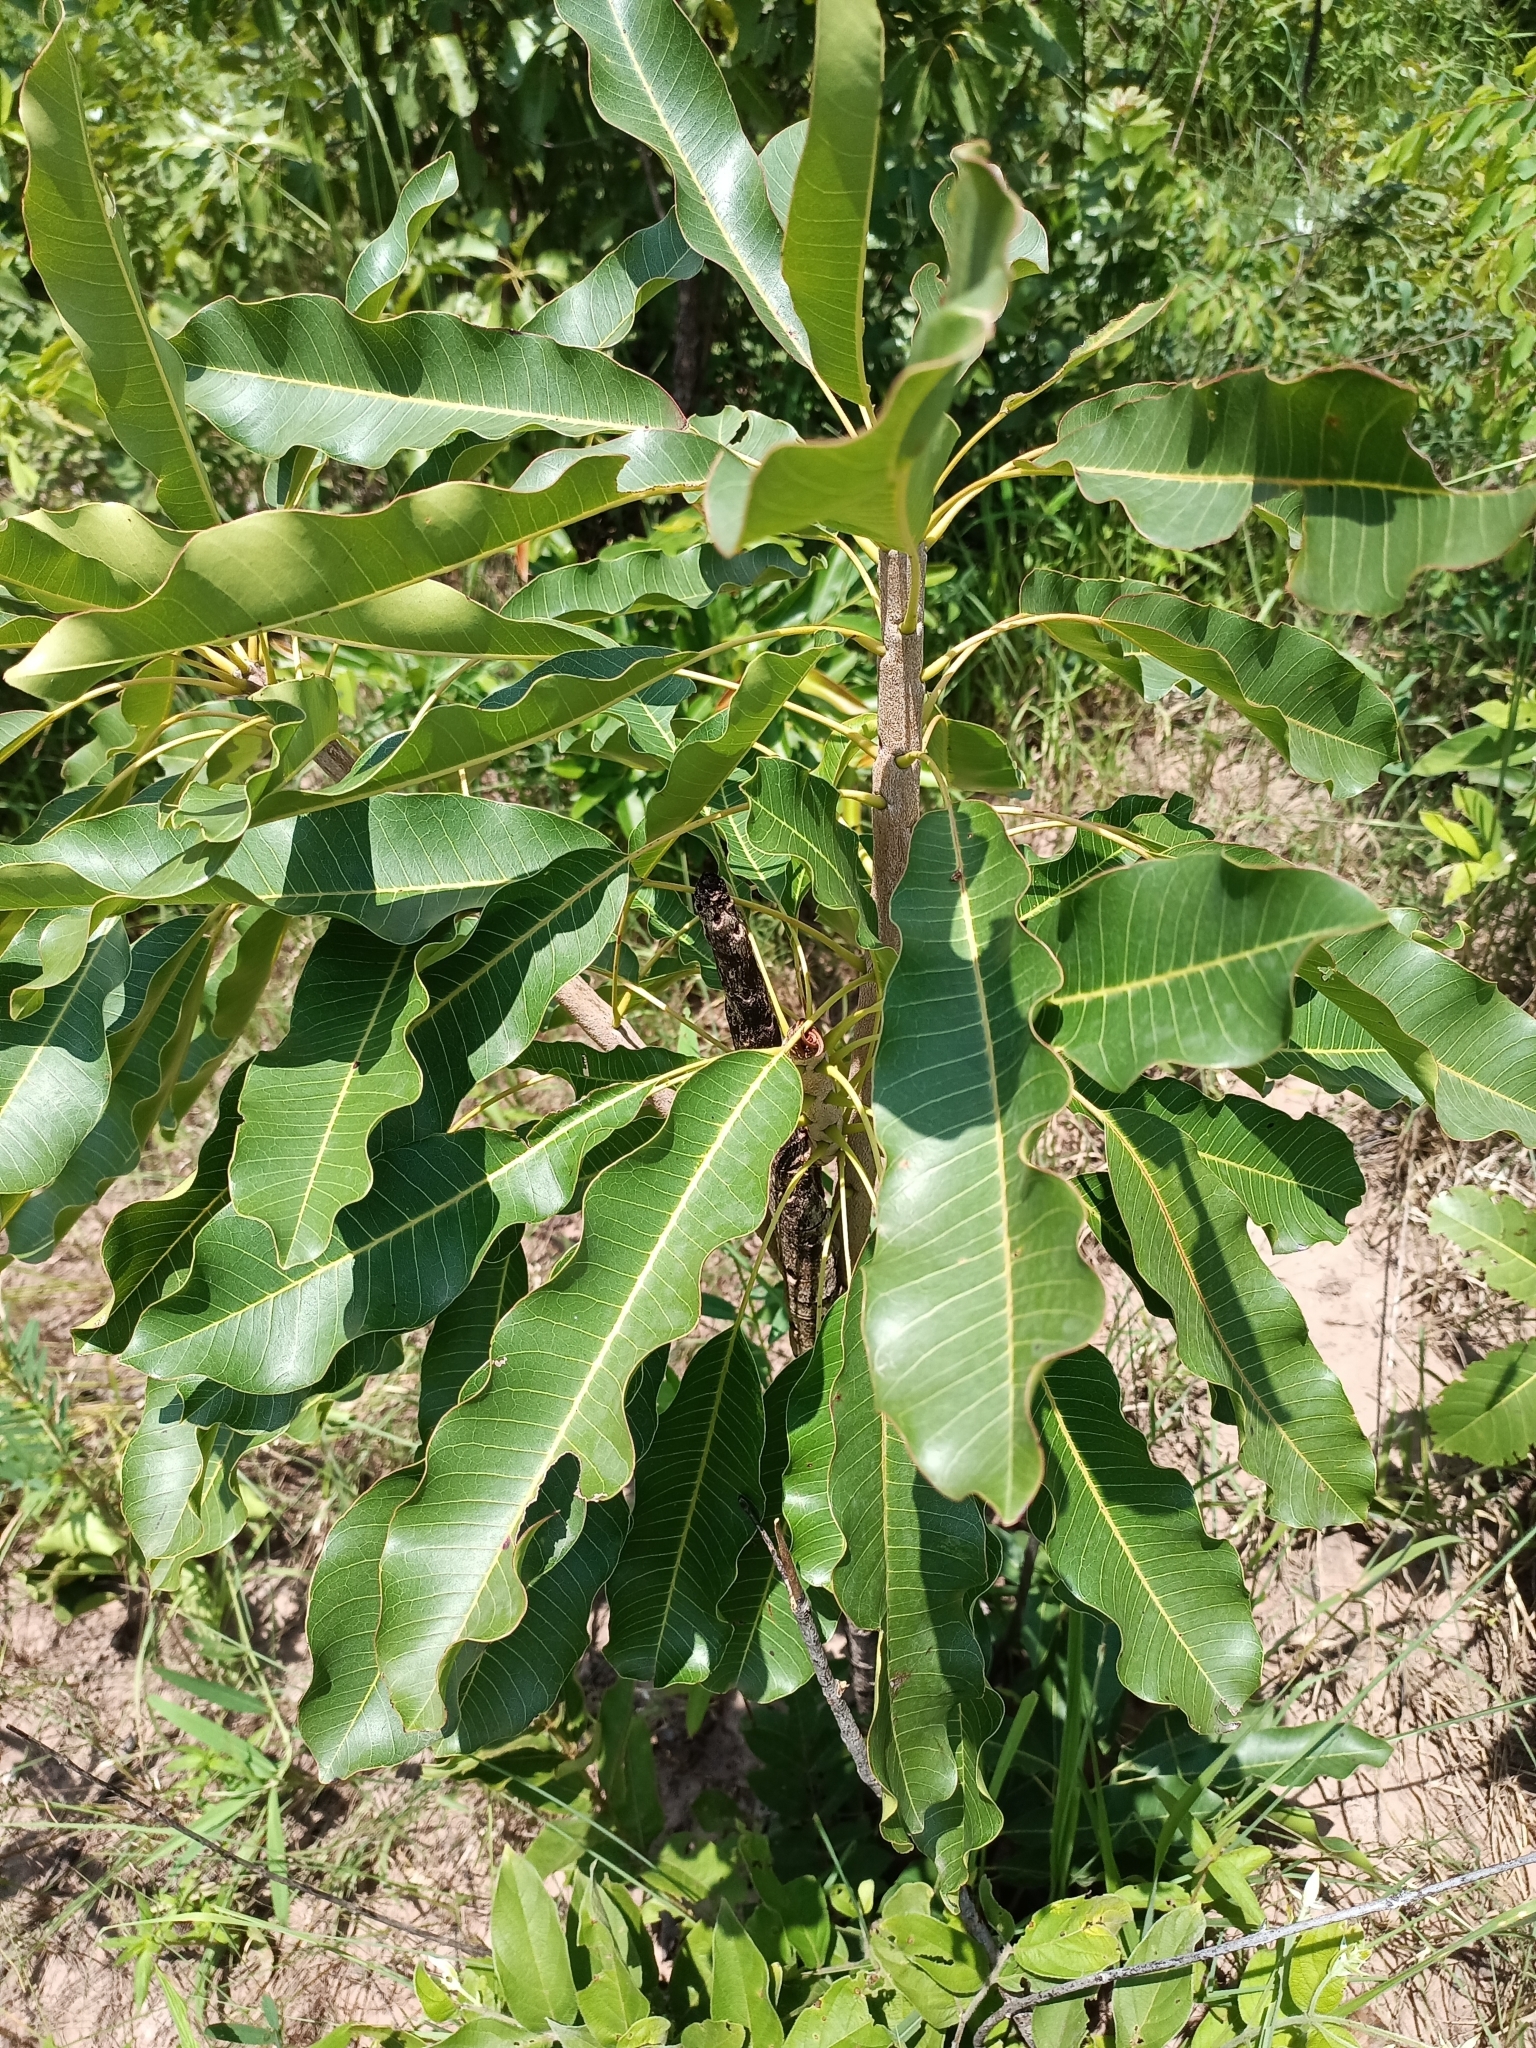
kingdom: Plantae
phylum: Tracheophyta
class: Magnoliopsida
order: Ericales
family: Sapotaceae
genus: Vitellaria
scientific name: Vitellaria paradoxa
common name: Shea butter tree
